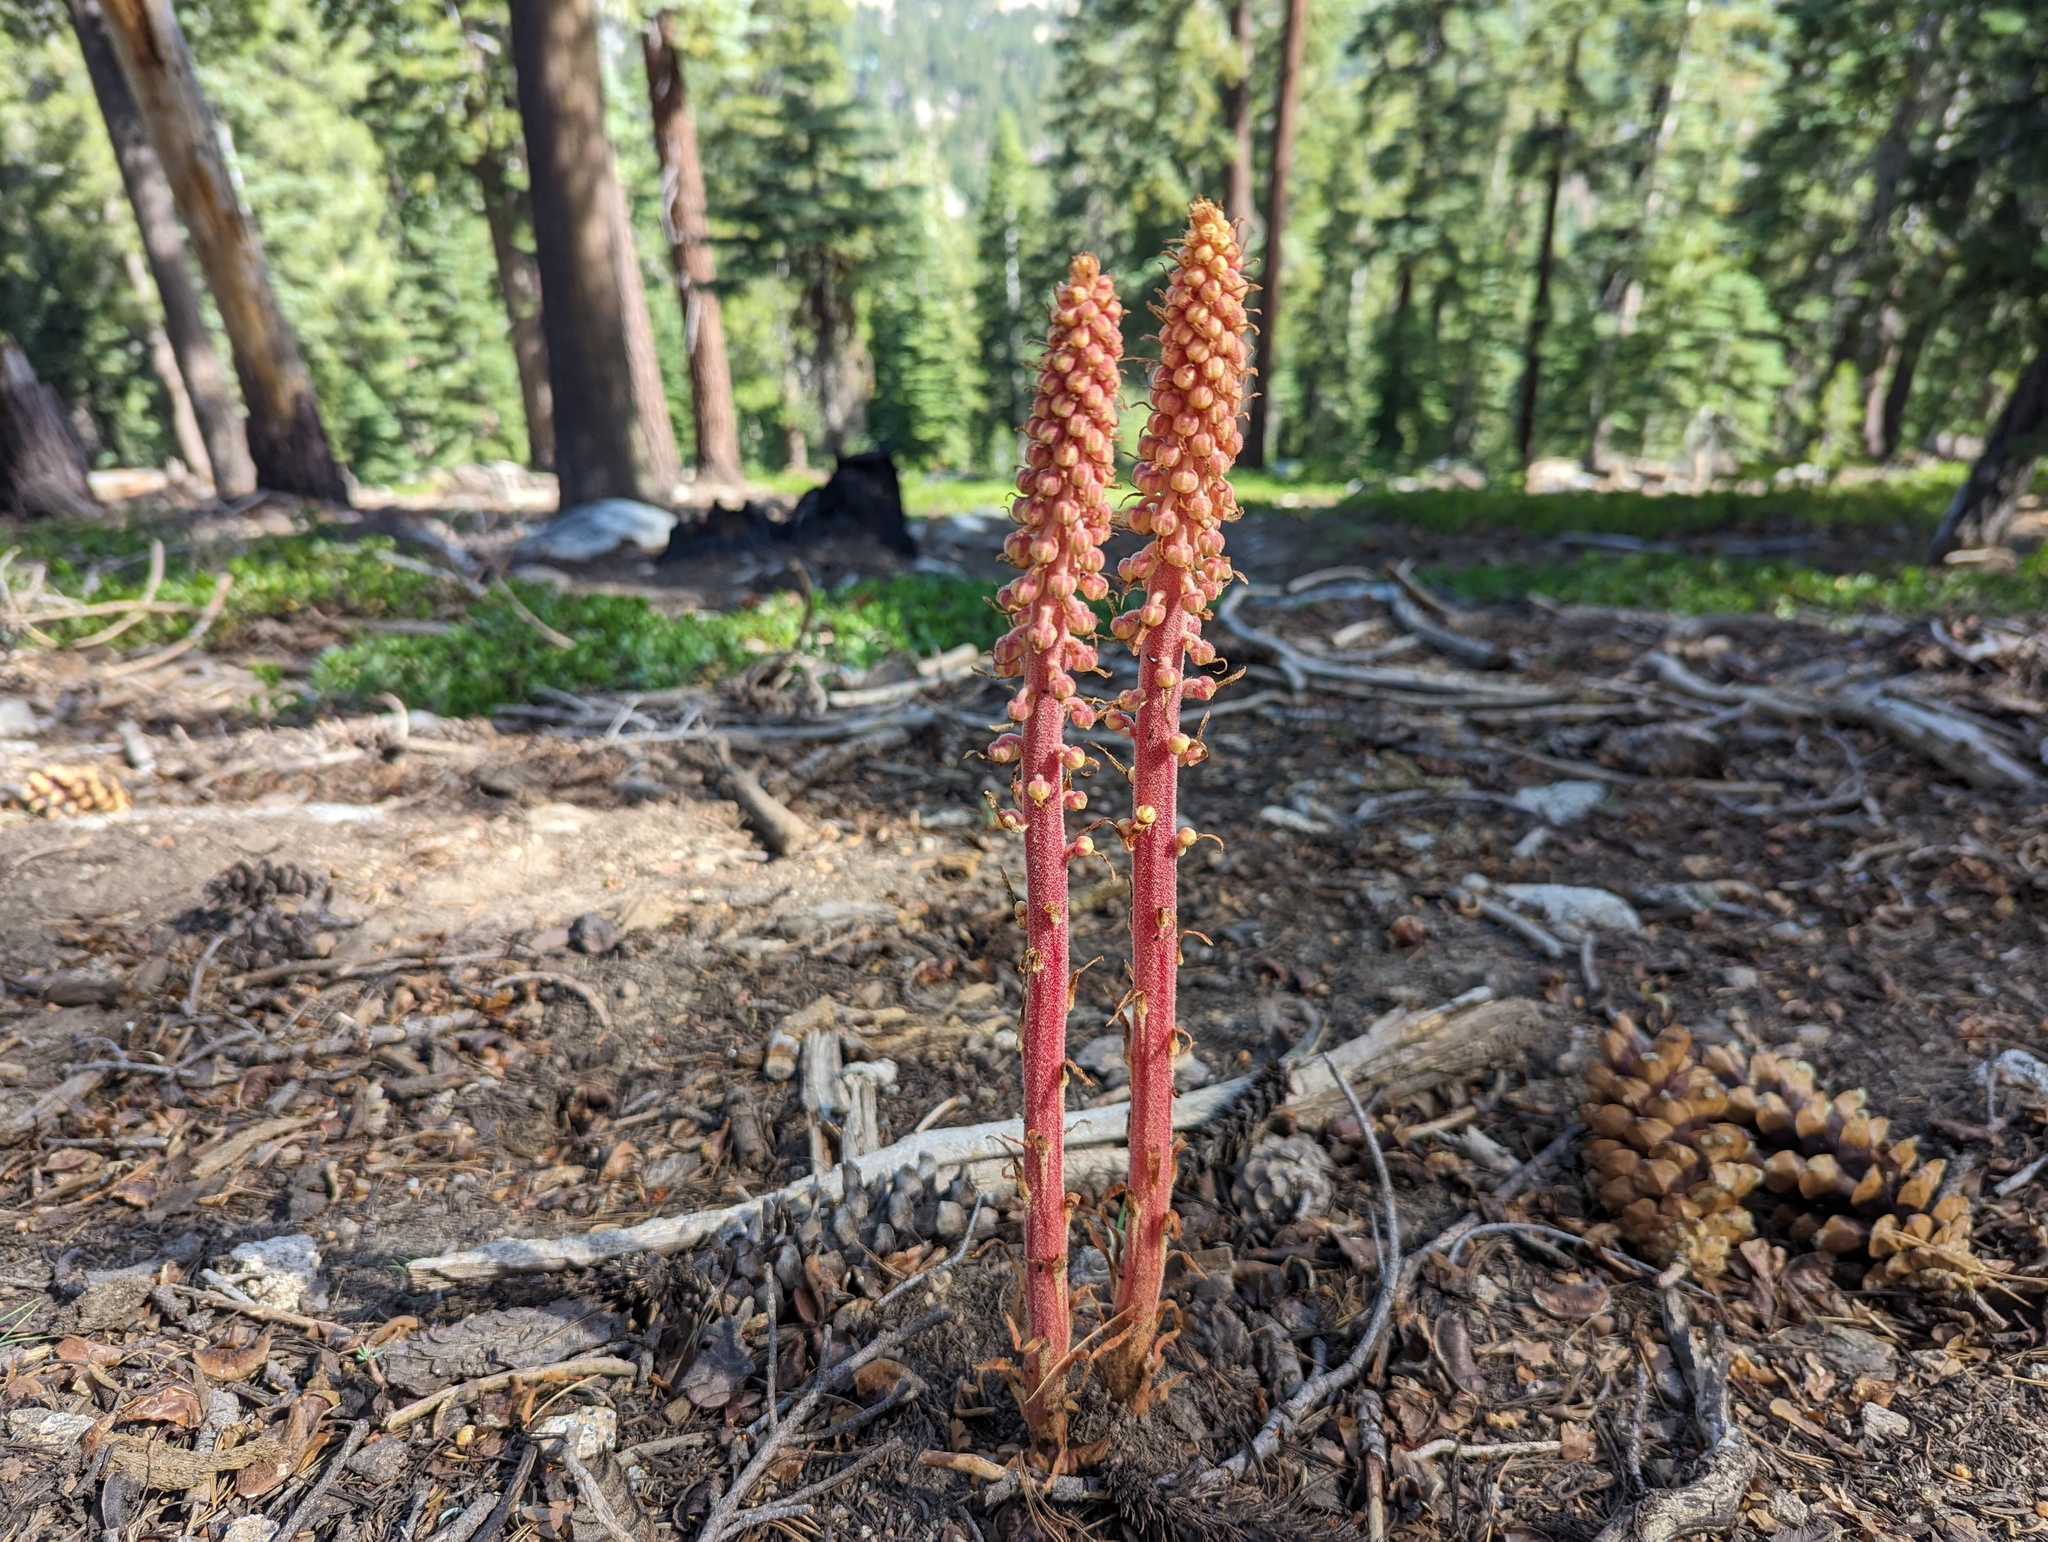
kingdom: Plantae
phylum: Tracheophyta
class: Magnoliopsida
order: Ericales
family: Ericaceae
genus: Pterospora
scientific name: Pterospora andromedea
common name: Giant bird's-nest
